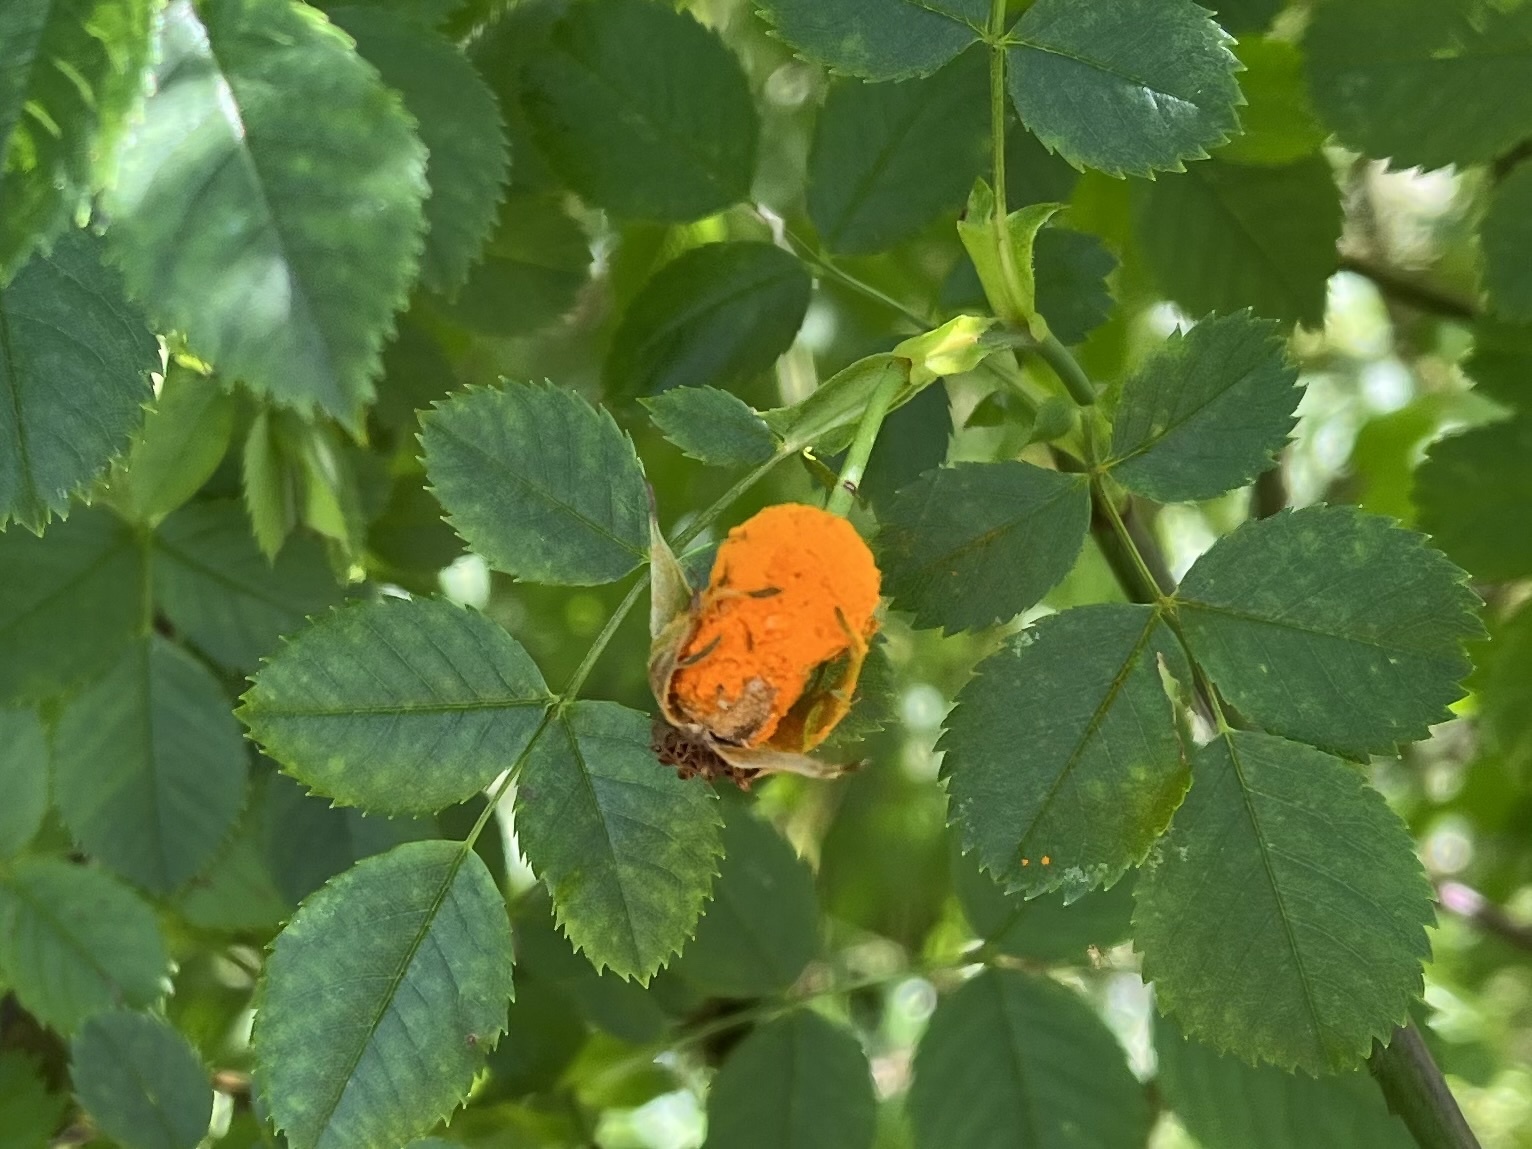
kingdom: Fungi
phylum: Basidiomycota
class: Pucciniomycetes
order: Pucciniales
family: Phragmidiaceae
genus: Phragmidium
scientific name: Phragmidium
